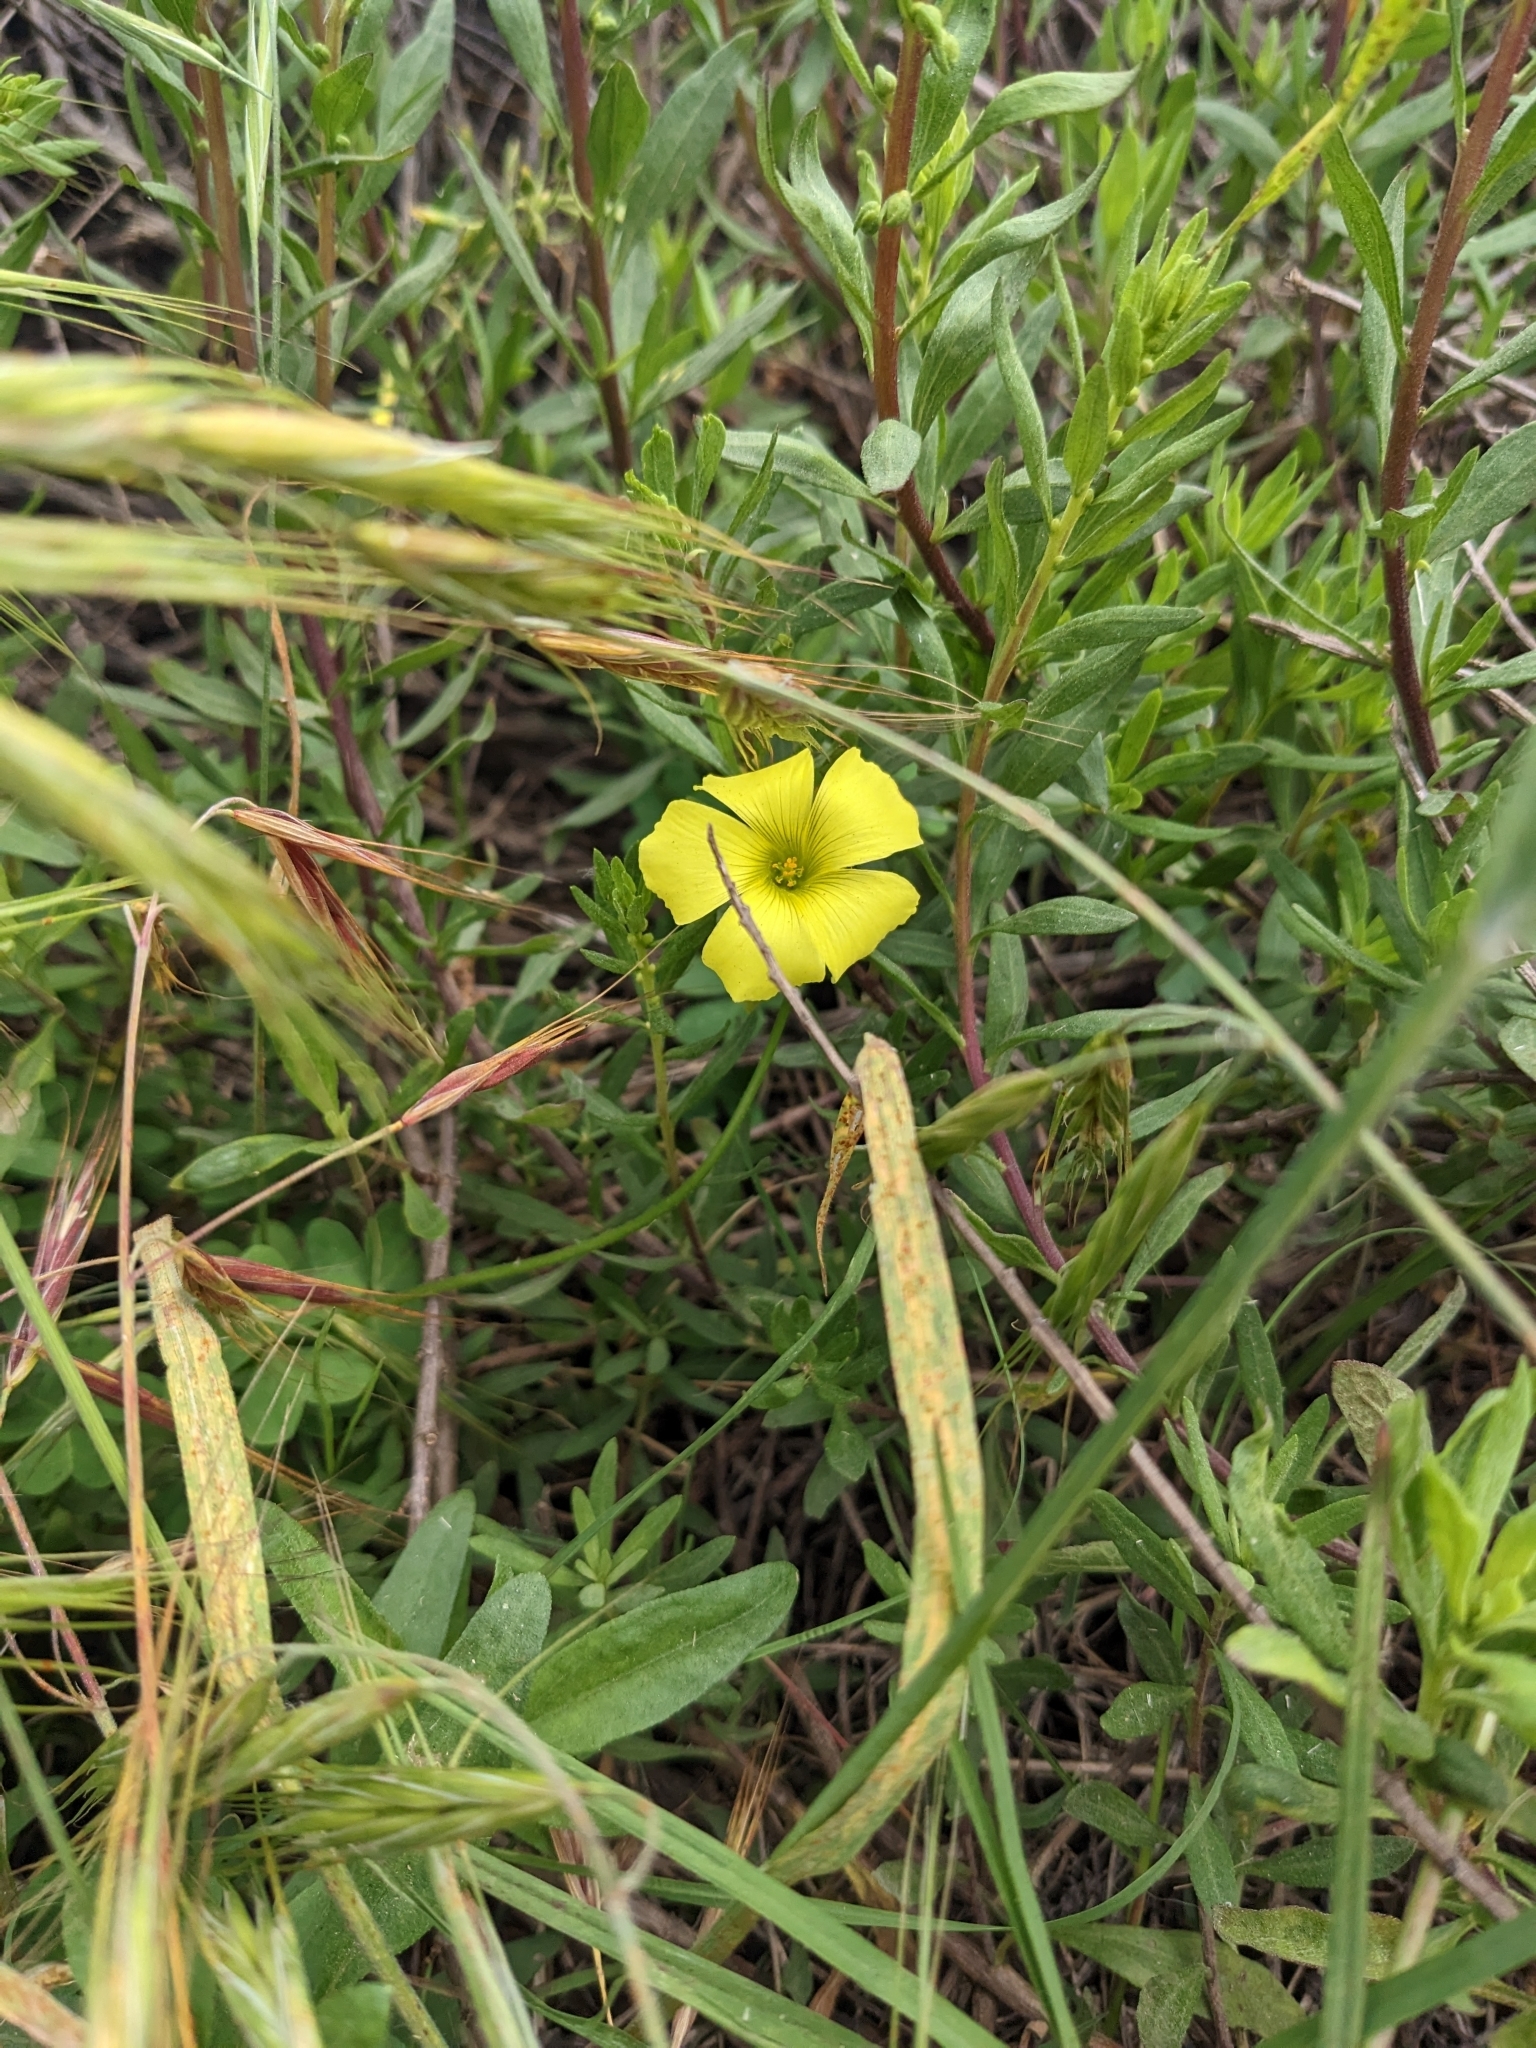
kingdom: Plantae
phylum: Tracheophyta
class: Magnoliopsida
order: Oxalidales
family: Oxalidaceae
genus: Oxalis
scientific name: Oxalis pes-caprae
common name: Bermuda-buttercup
